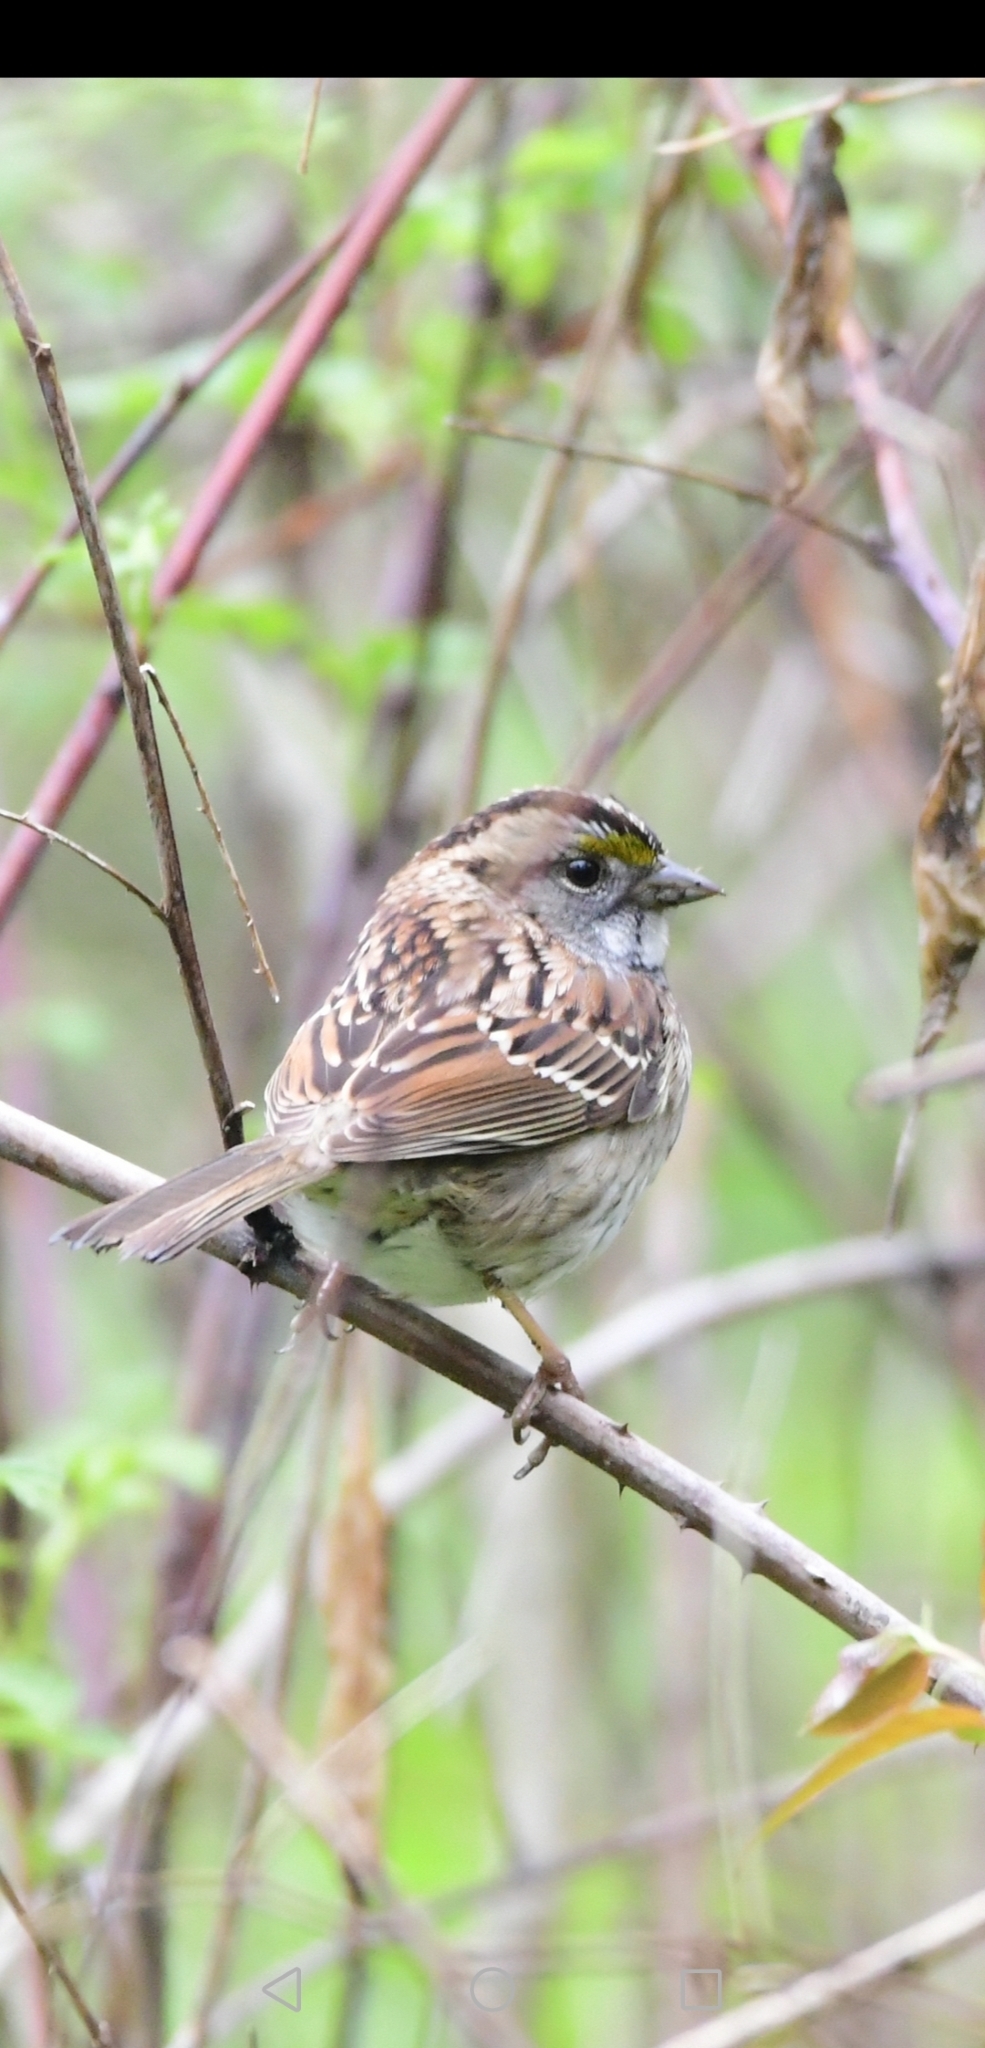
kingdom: Animalia
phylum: Chordata
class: Aves
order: Passeriformes
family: Passerellidae
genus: Zonotrichia
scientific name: Zonotrichia albicollis
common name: White-throated sparrow
